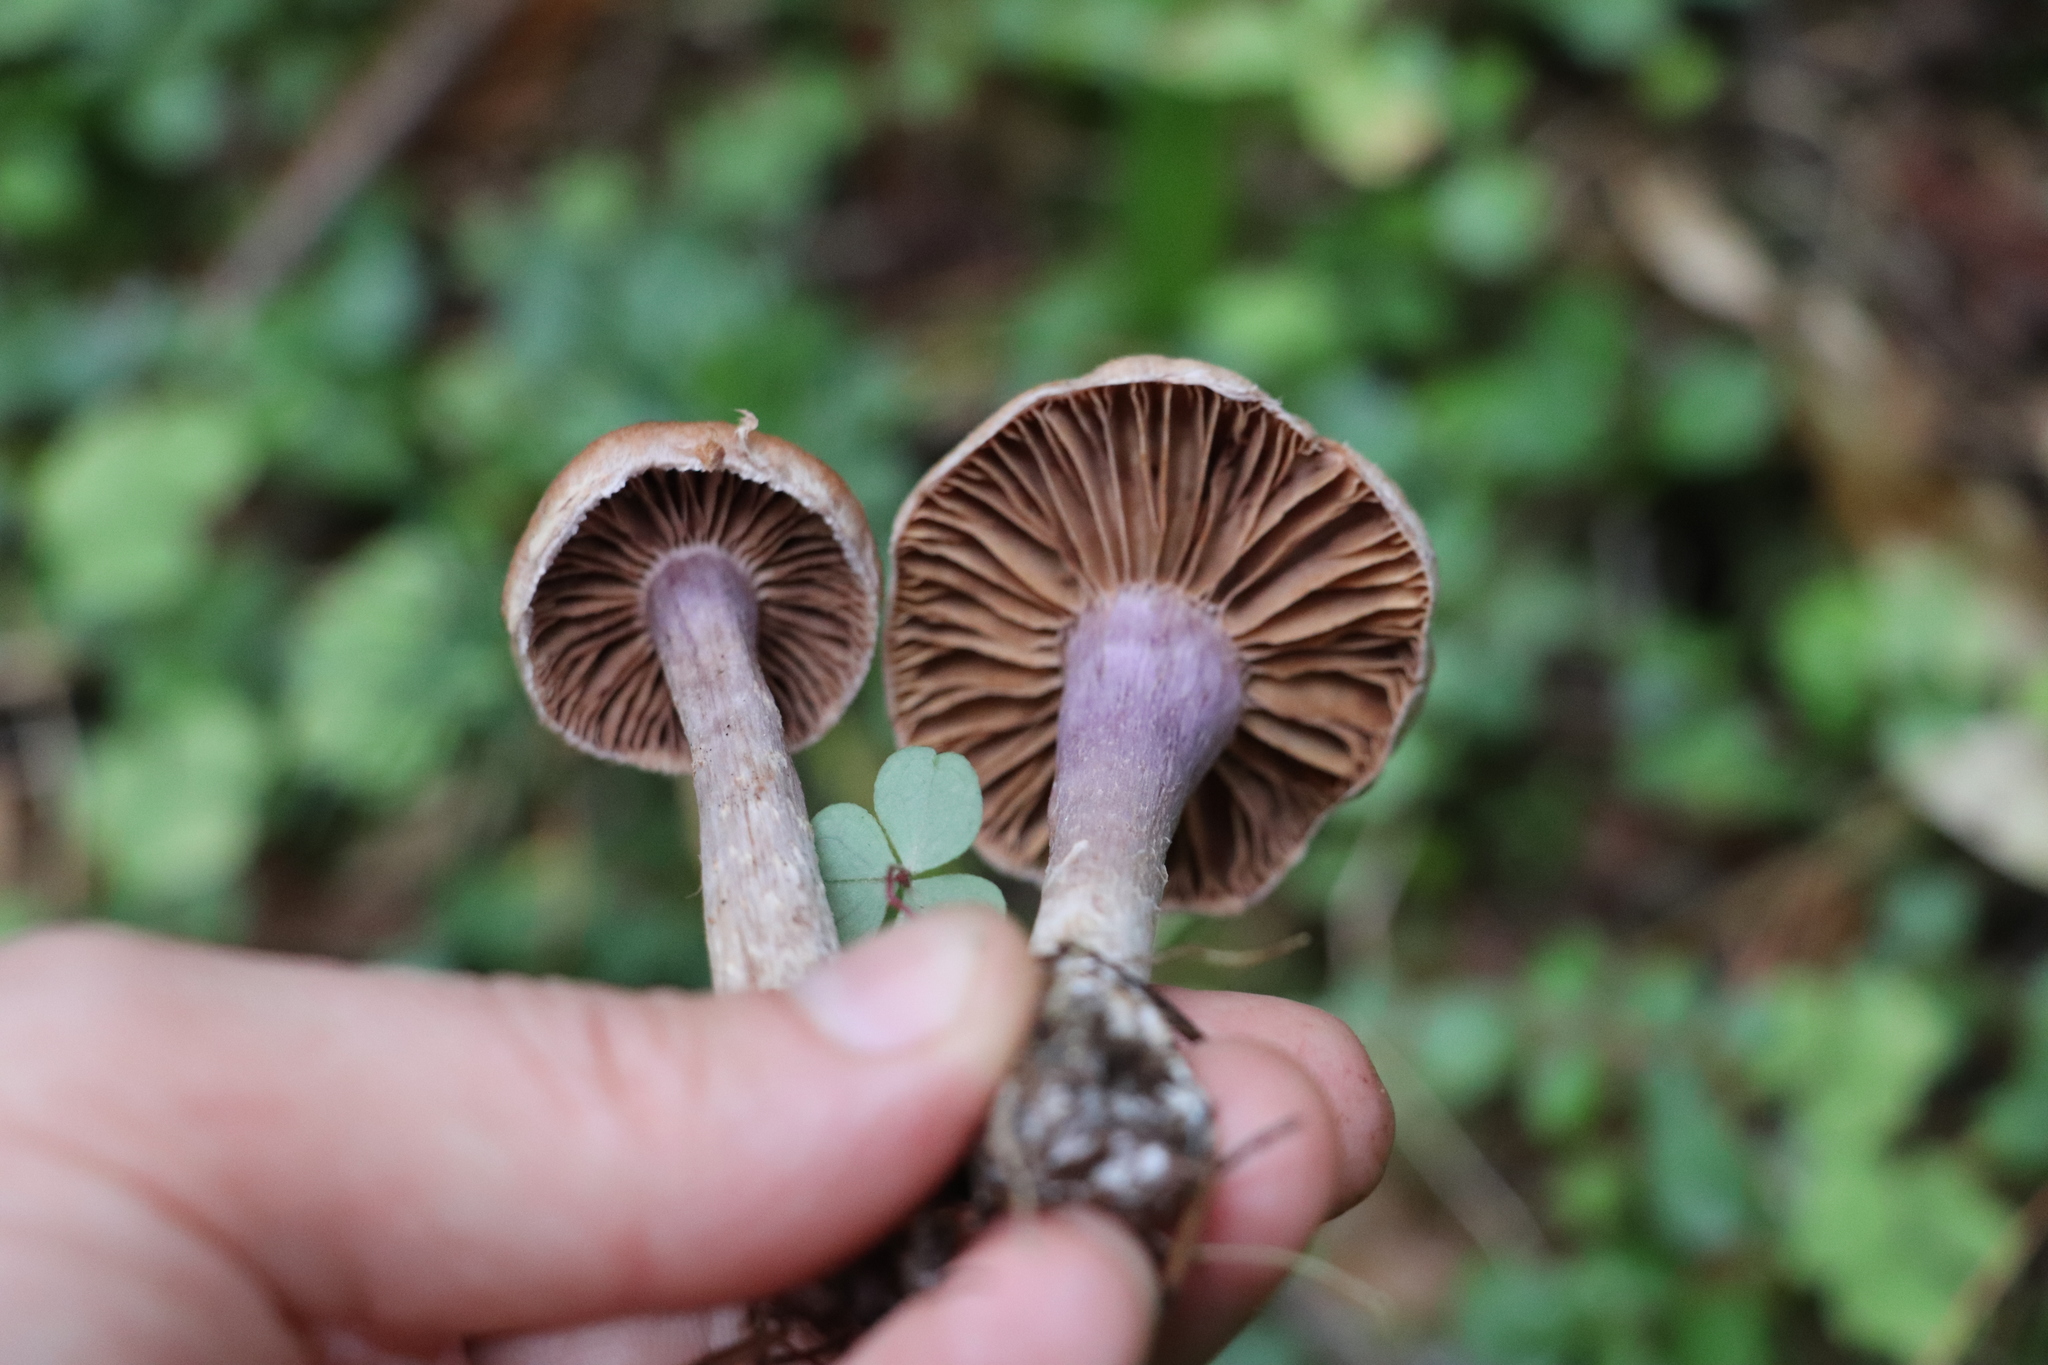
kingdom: Fungi
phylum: Basidiomycota
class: Agaricomycetes
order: Agaricales
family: Cortinariaceae
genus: Cortinarius
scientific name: Cortinarius laniger
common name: Woolly webcap
